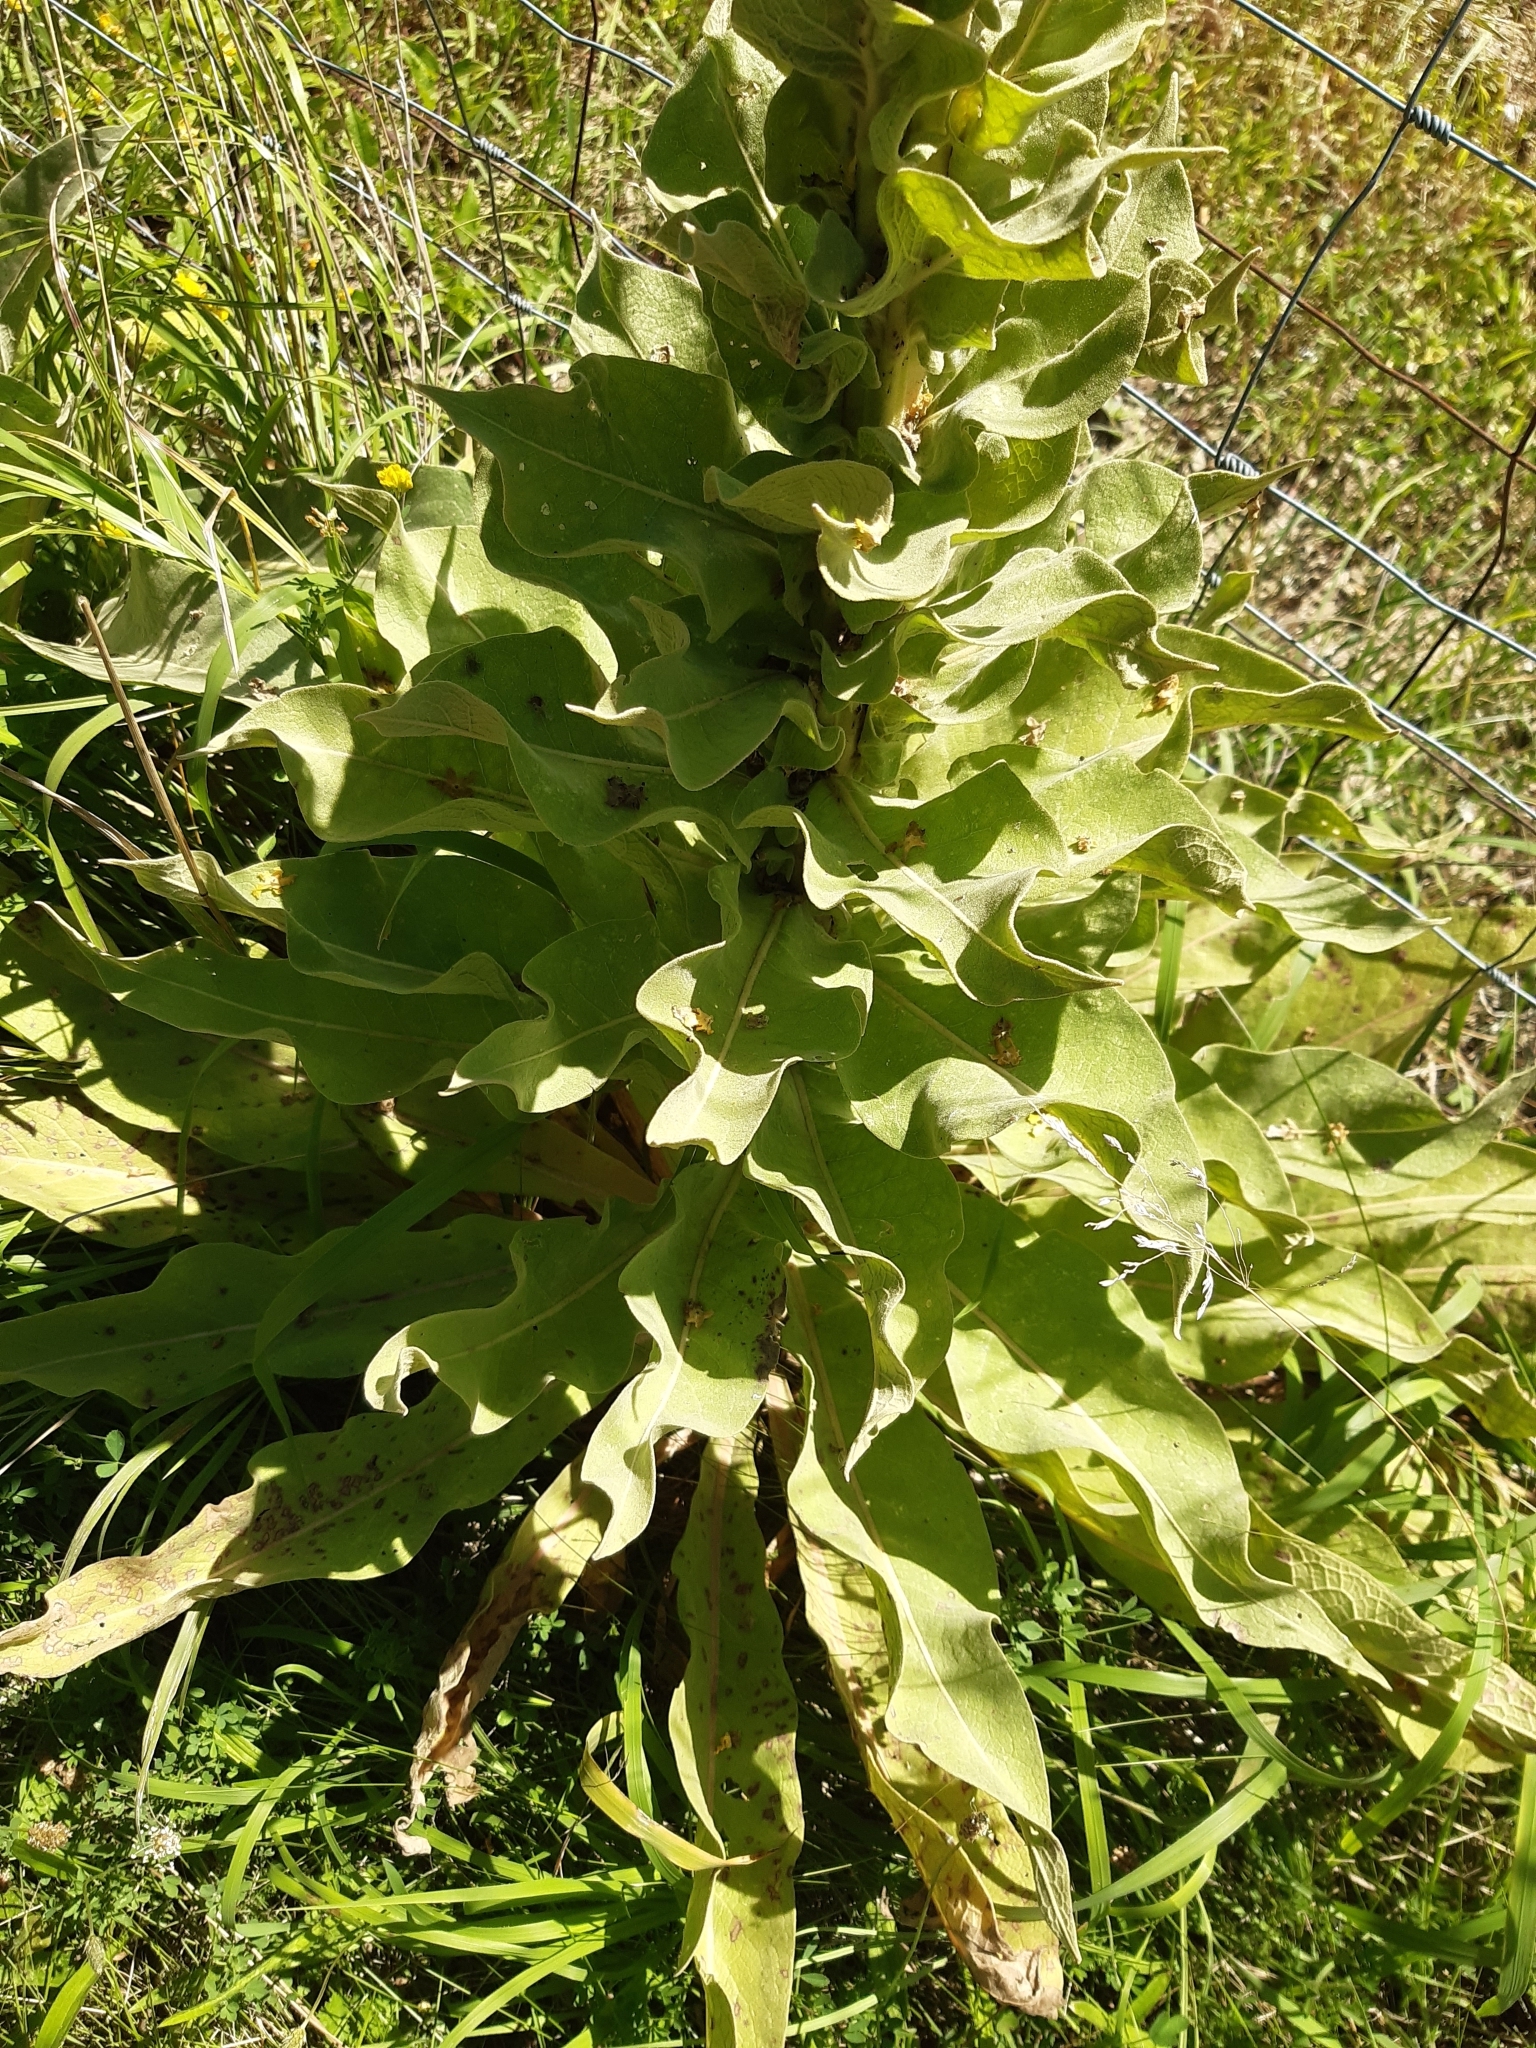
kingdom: Plantae
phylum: Tracheophyta
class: Magnoliopsida
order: Lamiales
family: Scrophulariaceae
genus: Verbascum
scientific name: Verbascum speciosum
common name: Hungarian mullein
